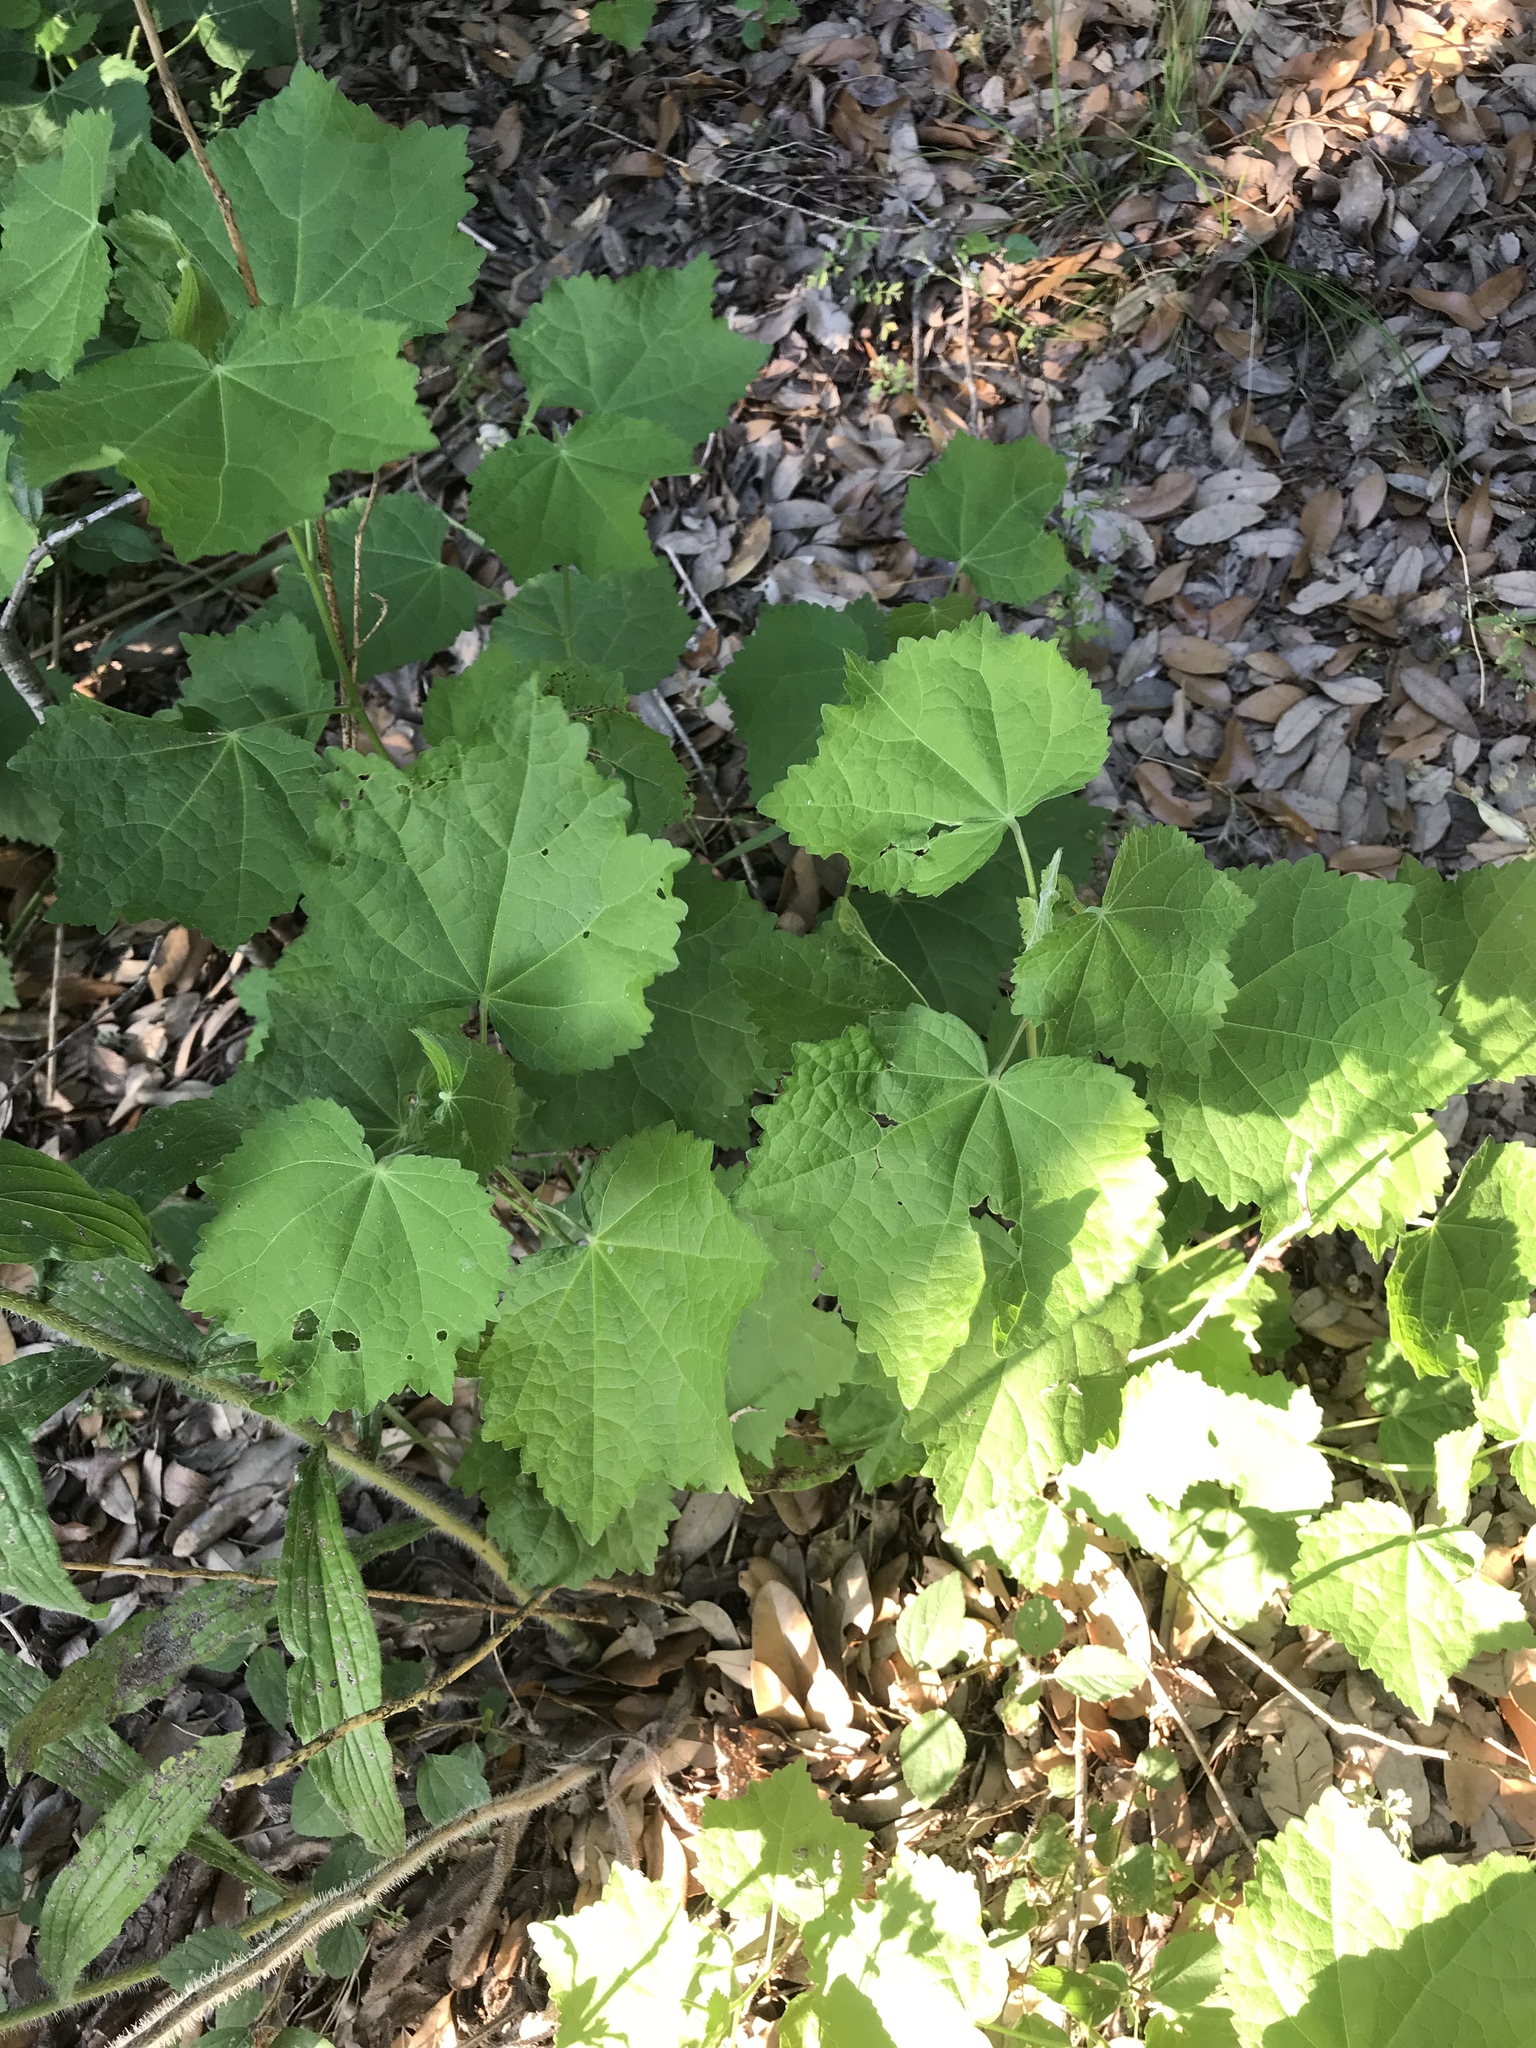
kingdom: Plantae
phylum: Tracheophyta
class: Magnoliopsida
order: Malvales
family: Malvaceae
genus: Malvaviscus
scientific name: Malvaviscus arboreus
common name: Wax mallow
